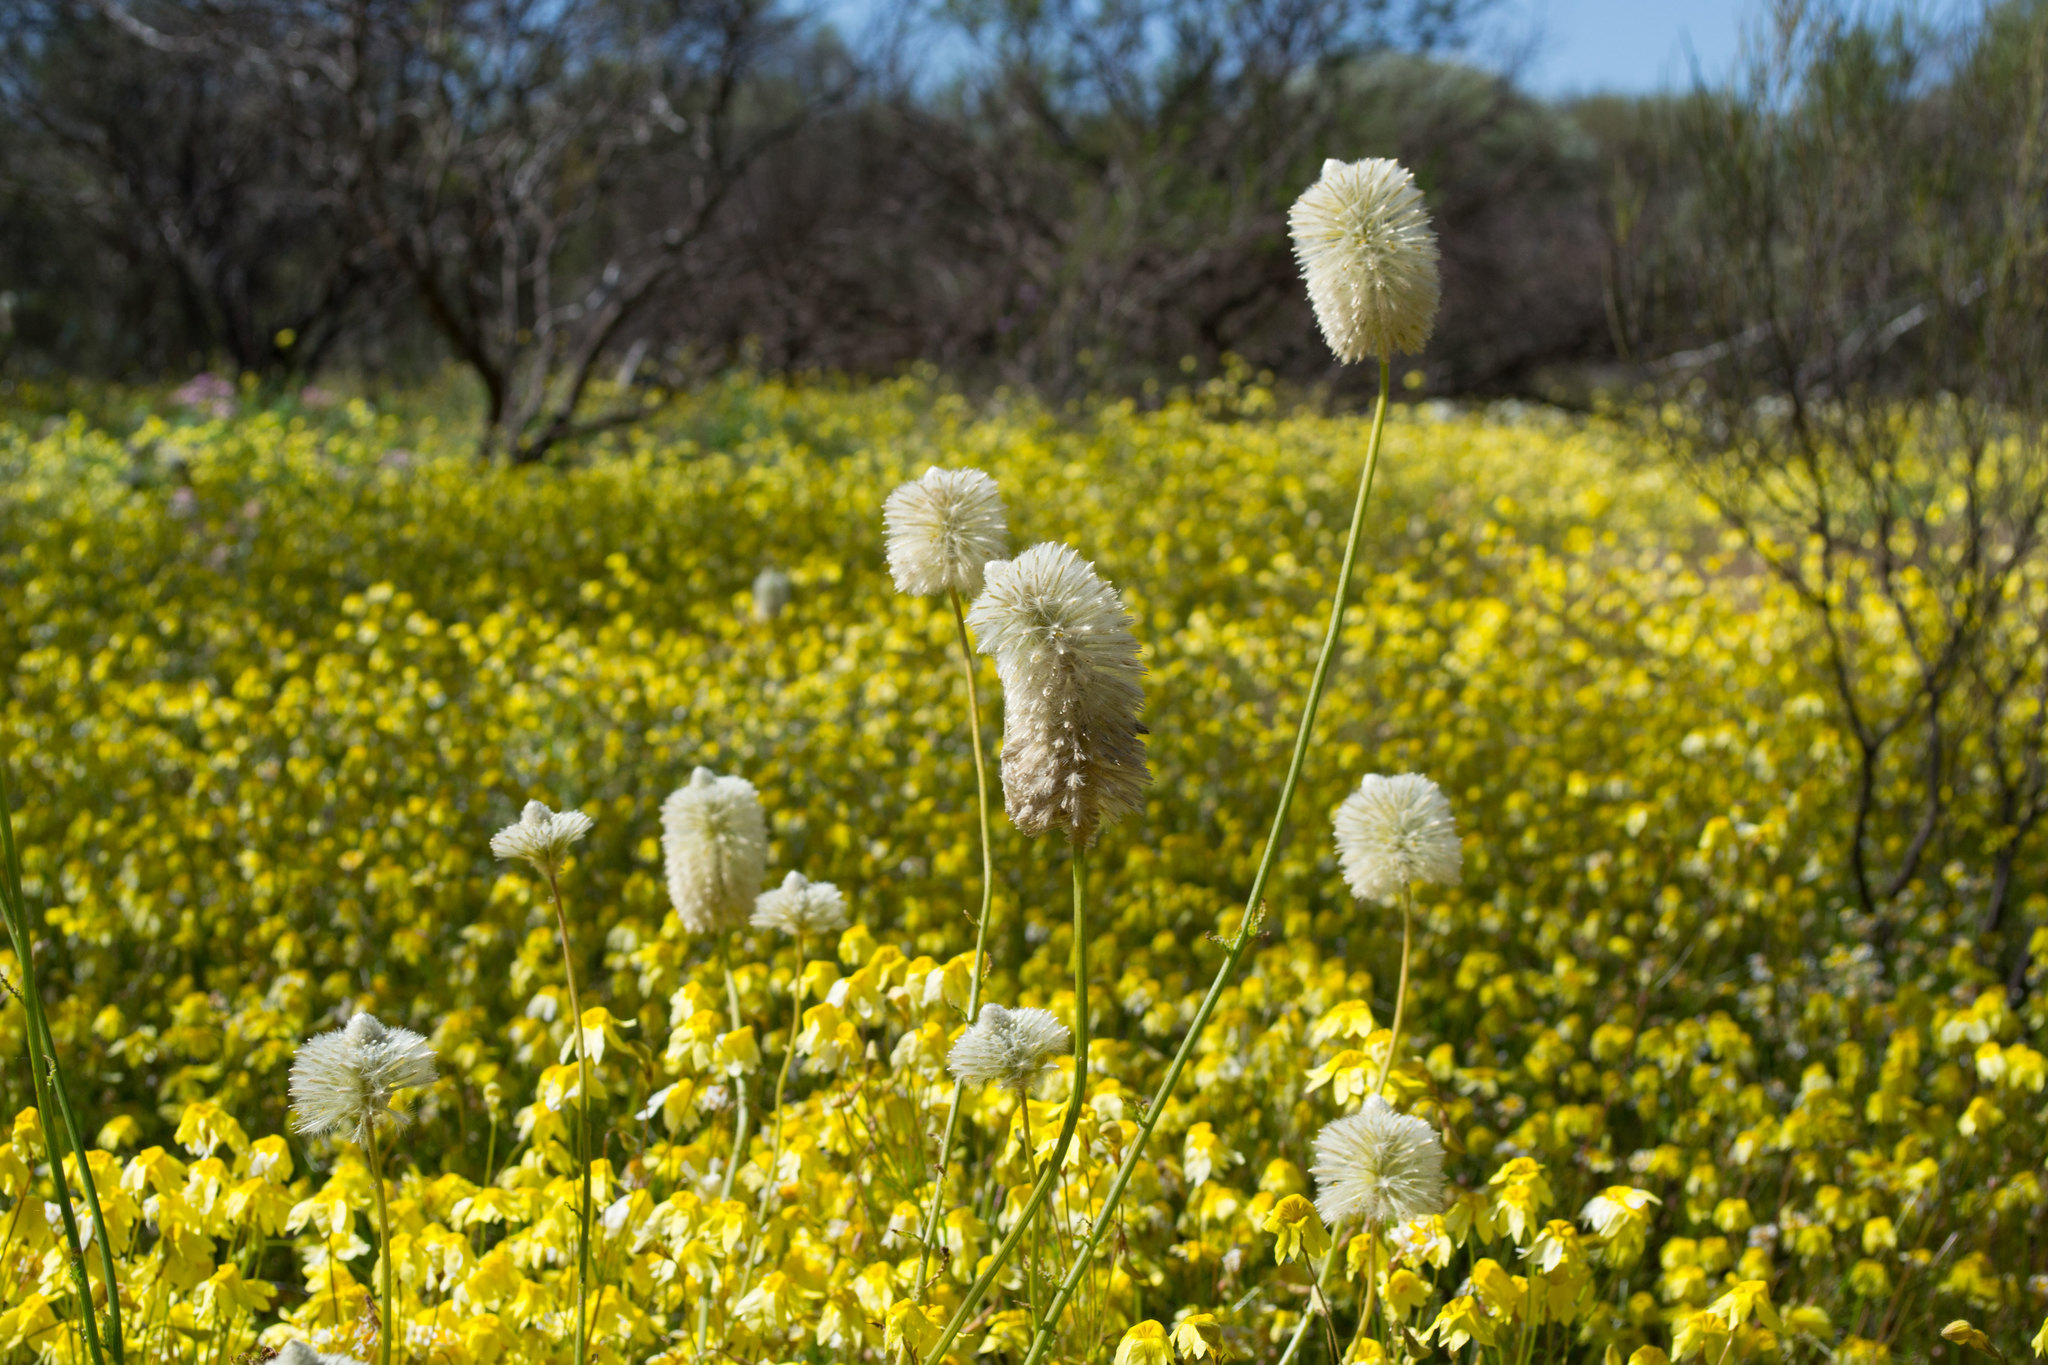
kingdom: Plantae
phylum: Tracheophyta
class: Magnoliopsida
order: Caryophyllales
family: Amaranthaceae
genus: Ptilotus
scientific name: Ptilotus xerophilus
